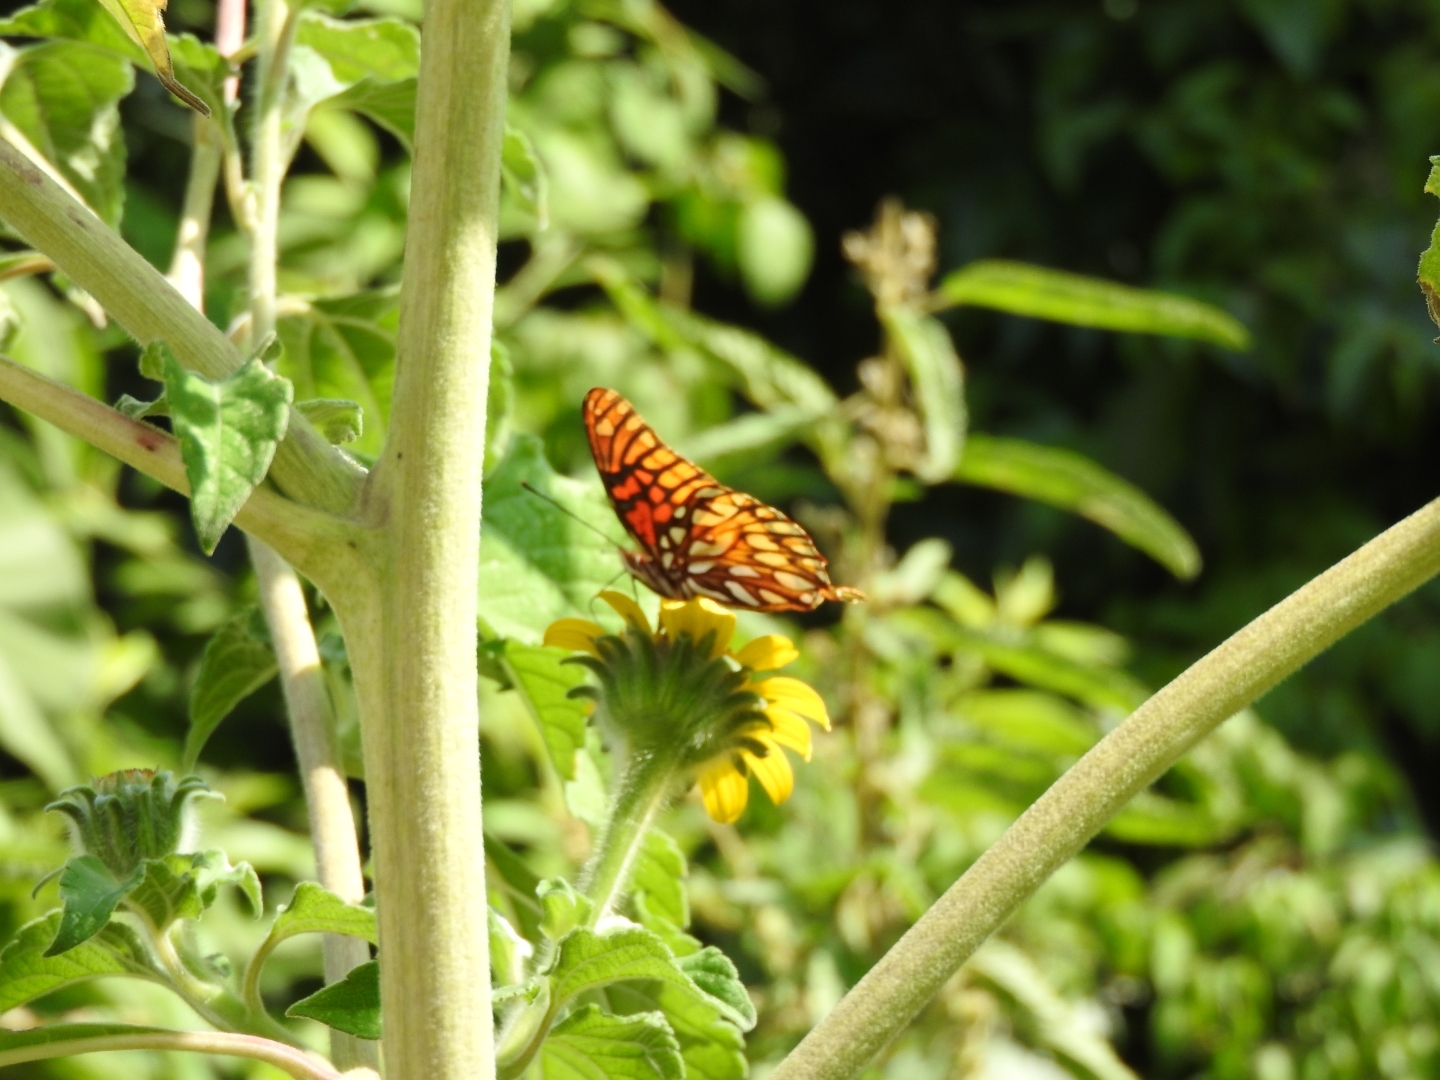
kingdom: Animalia
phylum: Arthropoda
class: Insecta
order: Lepidoptera
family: Nymphalidae
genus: Dione
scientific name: Dione moneta
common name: Mexican silverspot
